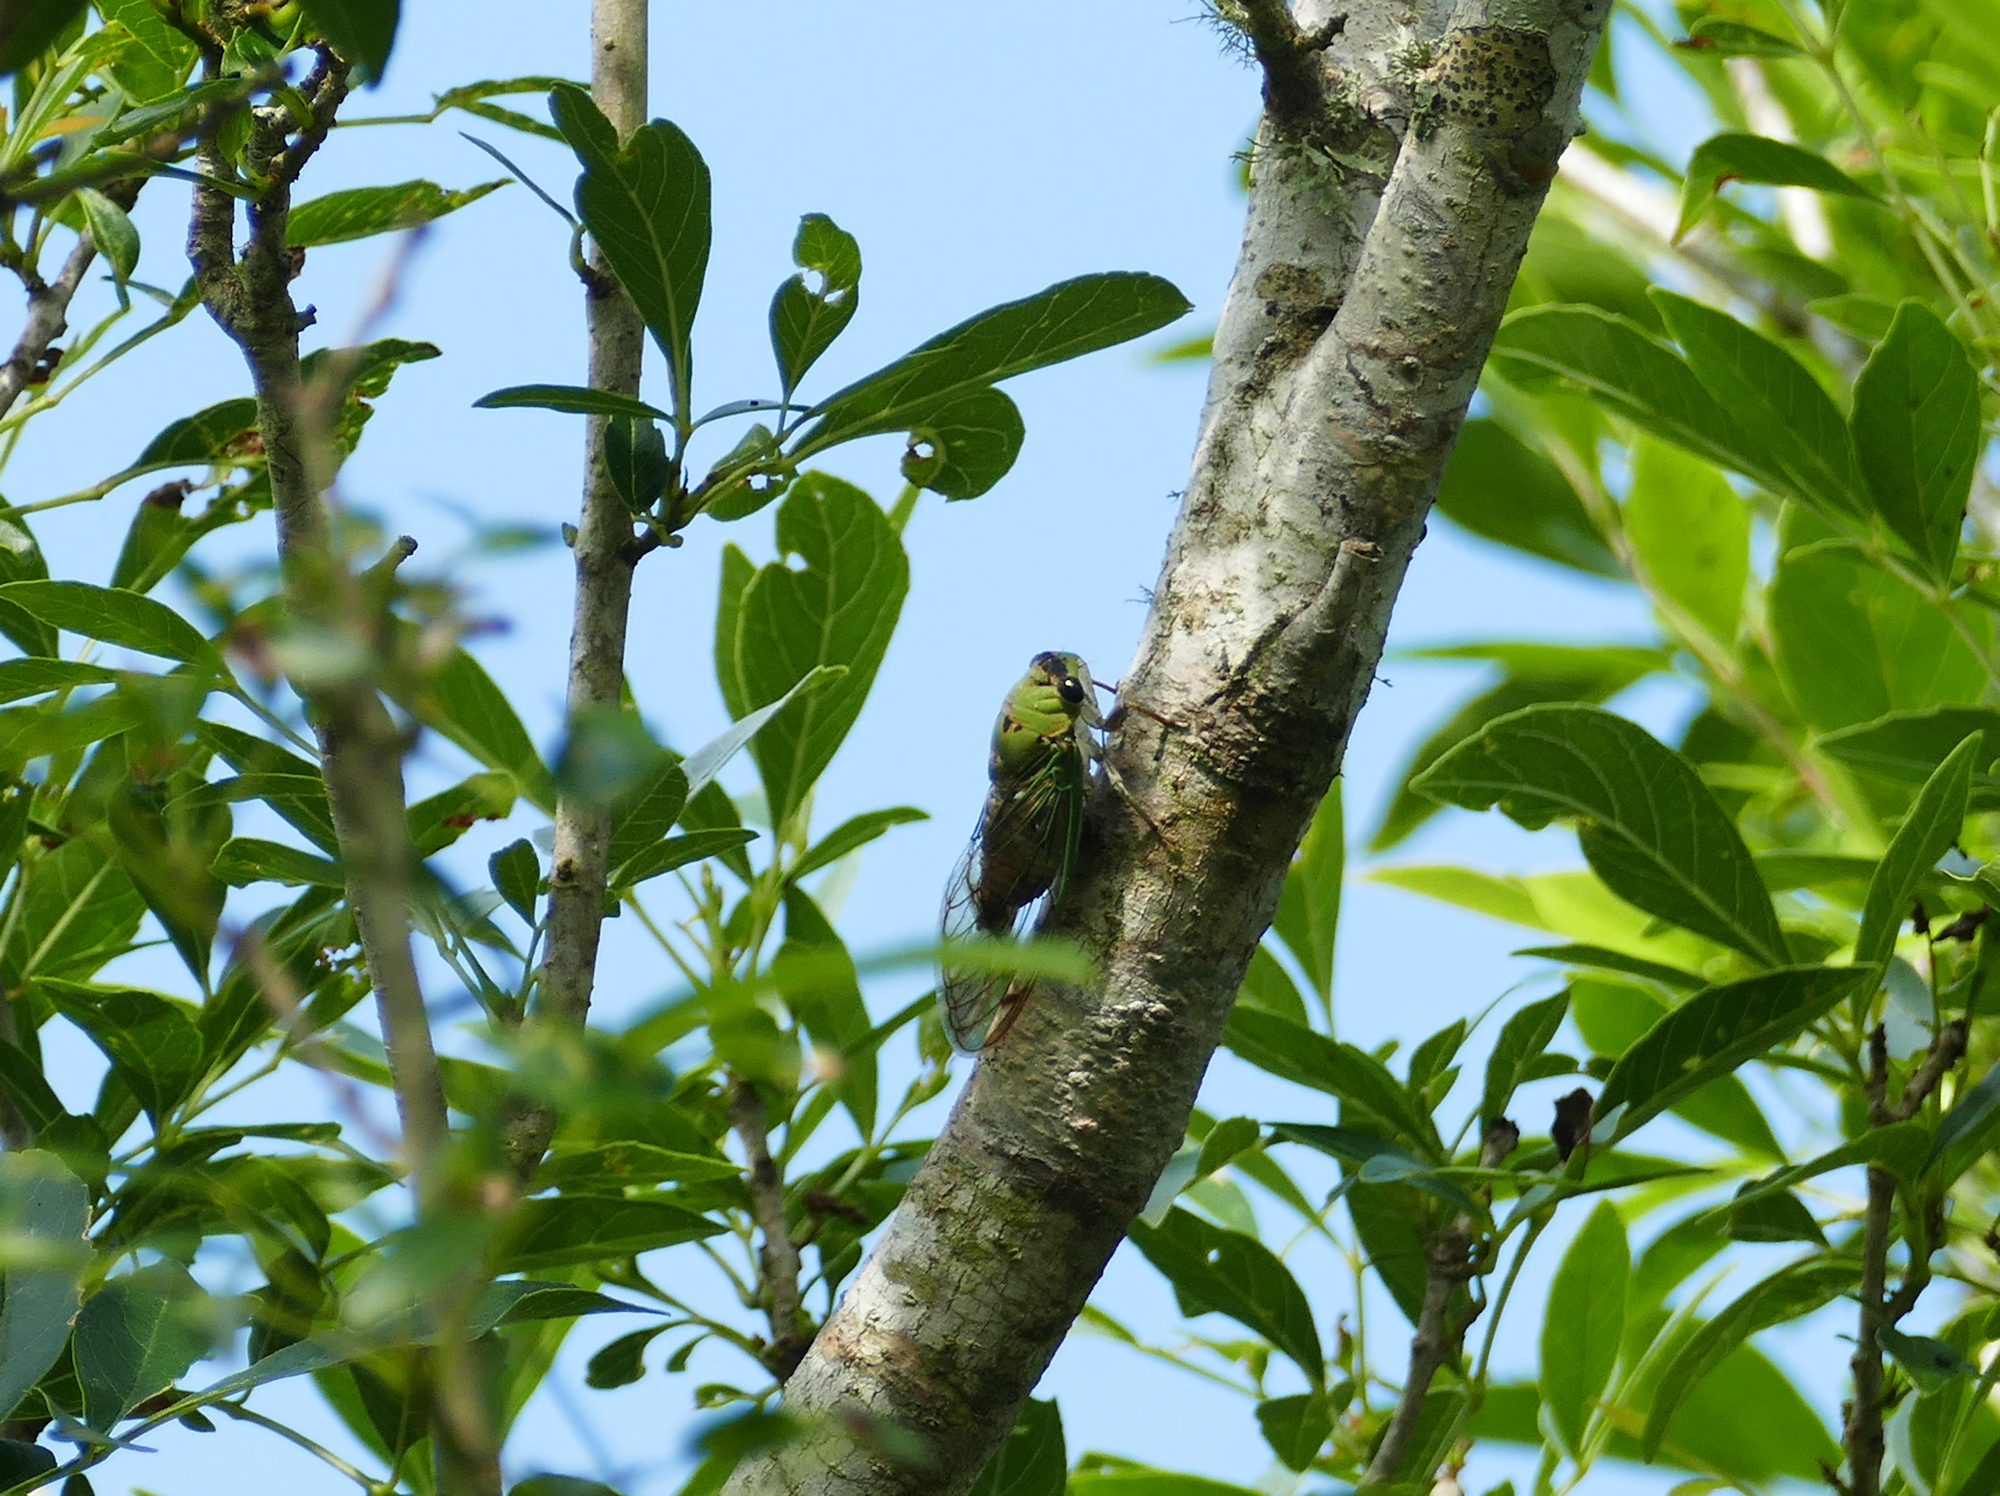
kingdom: Animalia
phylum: Arthropoda
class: Insecta
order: Hemiptera
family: Cicadidae
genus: Neotibicen
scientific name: Neotibicen superbus
